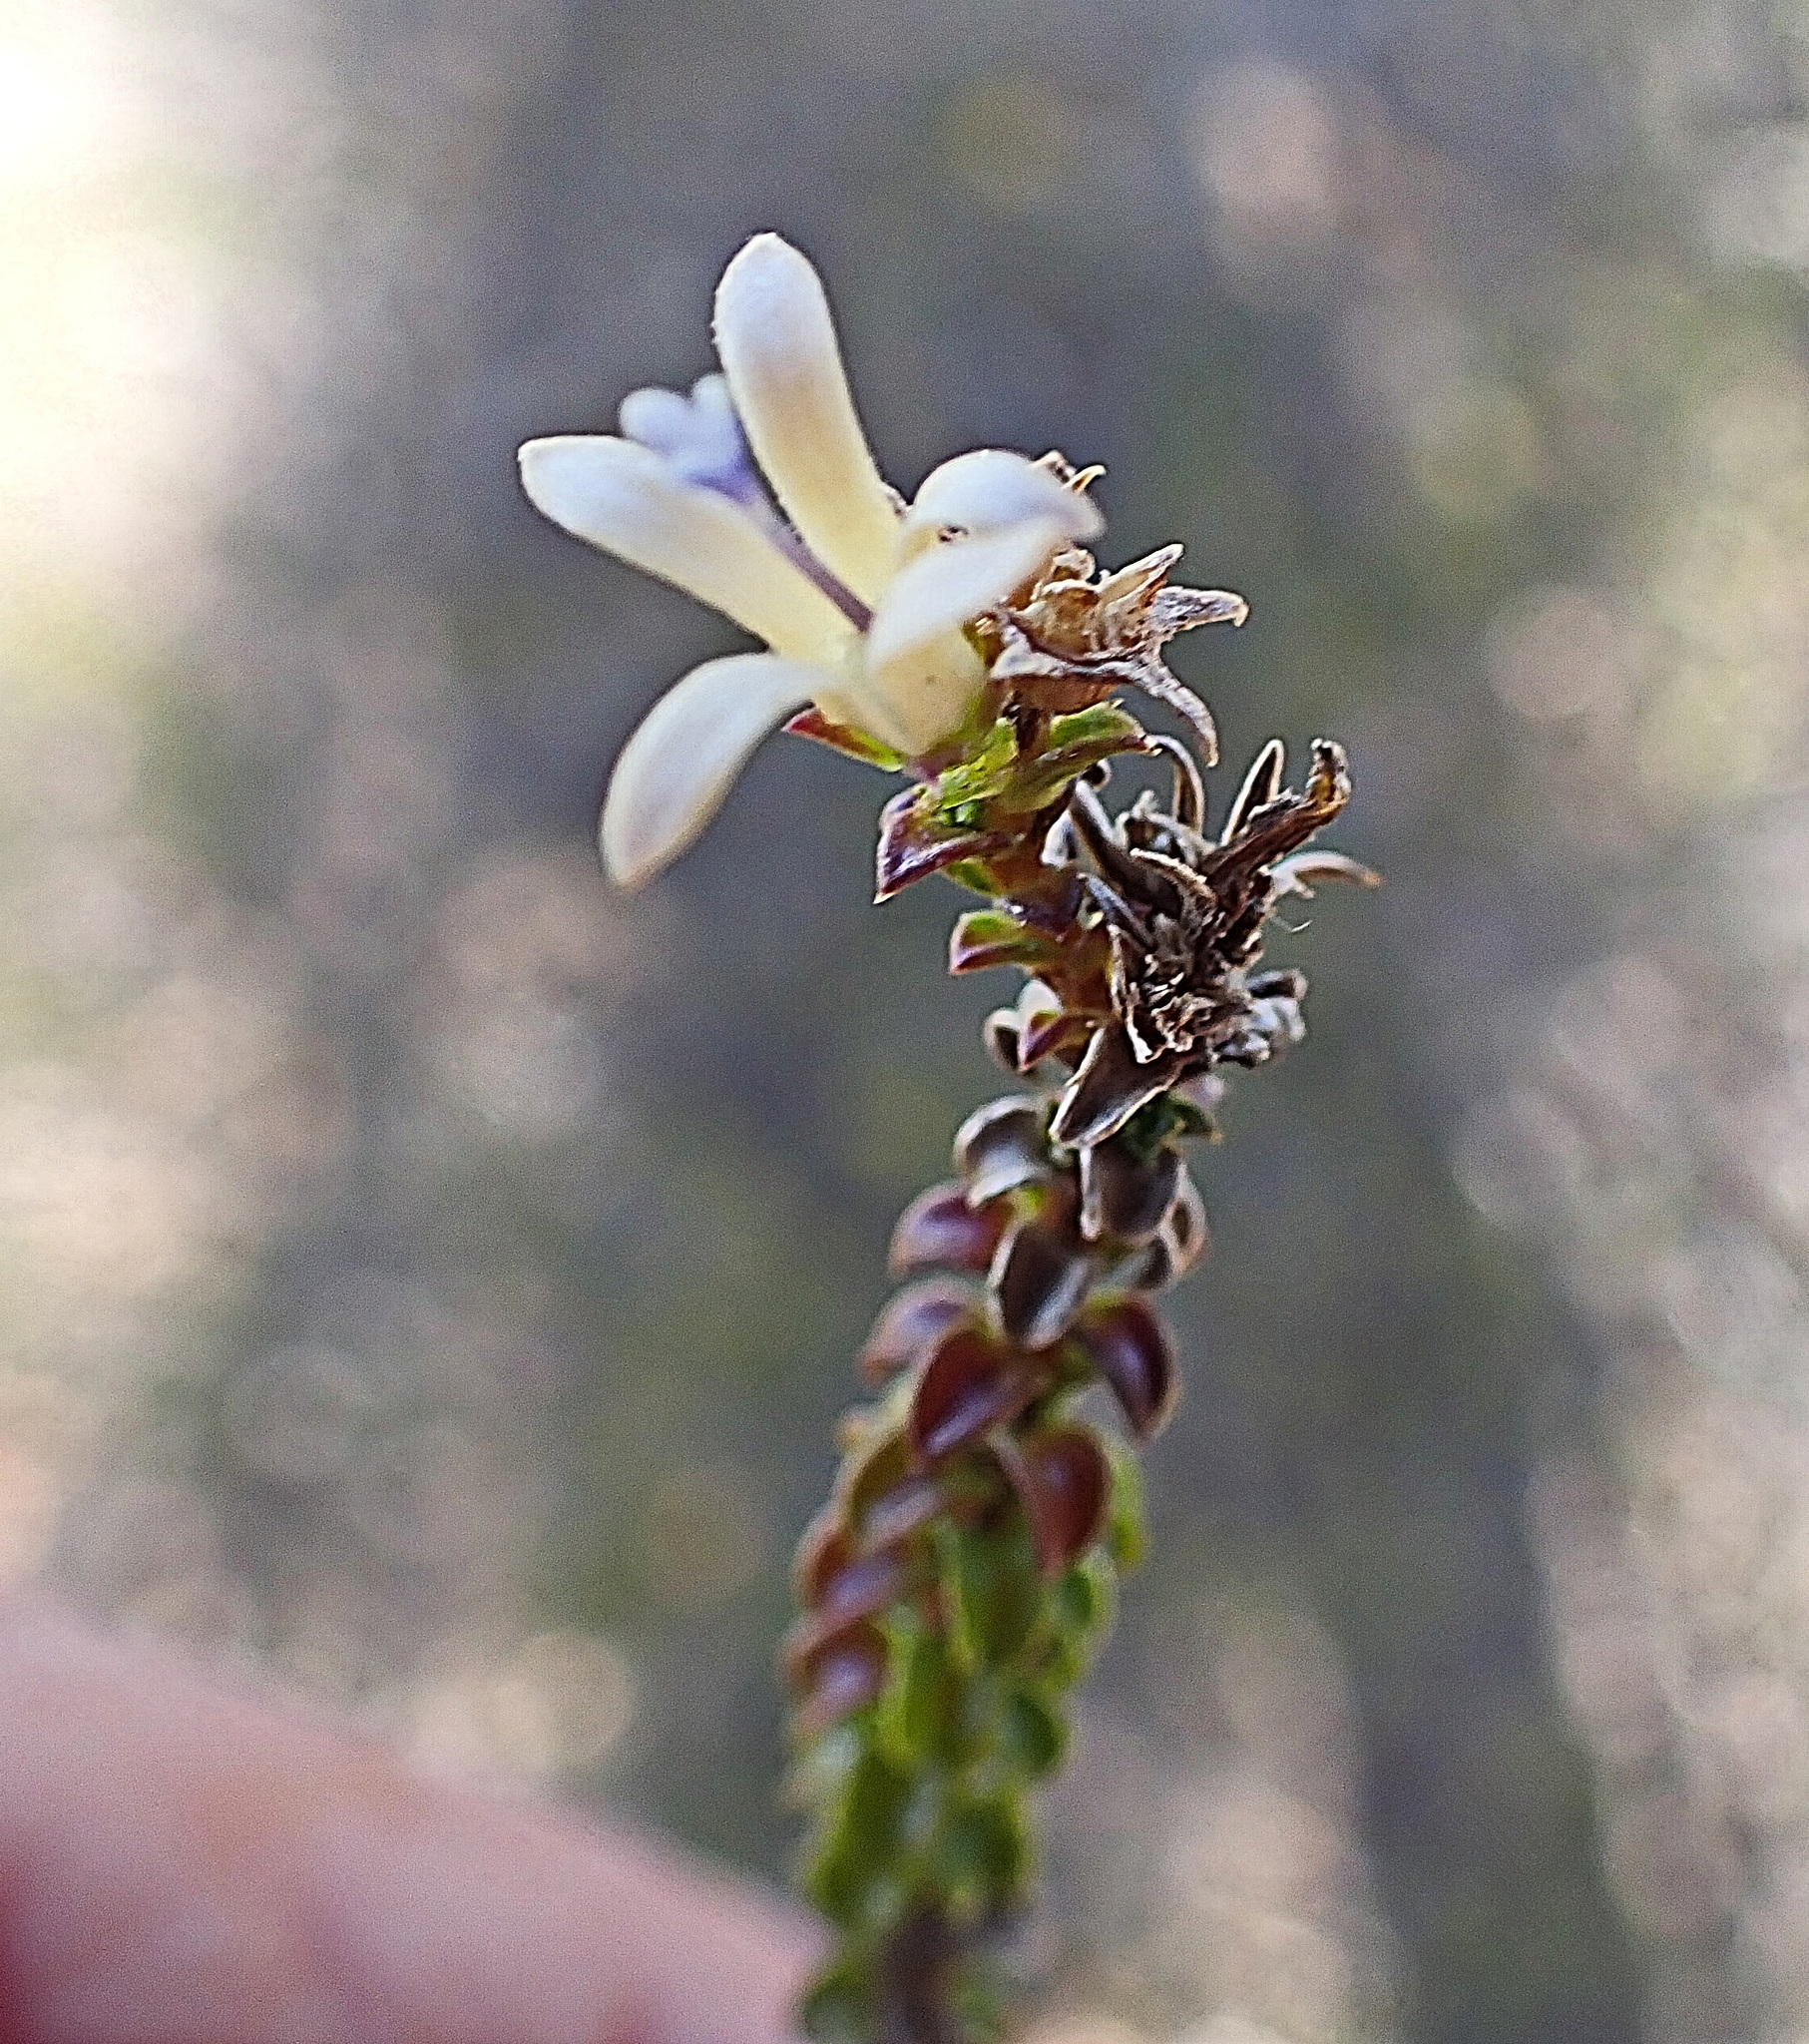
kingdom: Plantae
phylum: Tracheophyta
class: Magnoliopsida
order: Asterales
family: Campanulaceae
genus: Wahlenbergia
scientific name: Wahlenbergia neorigida
